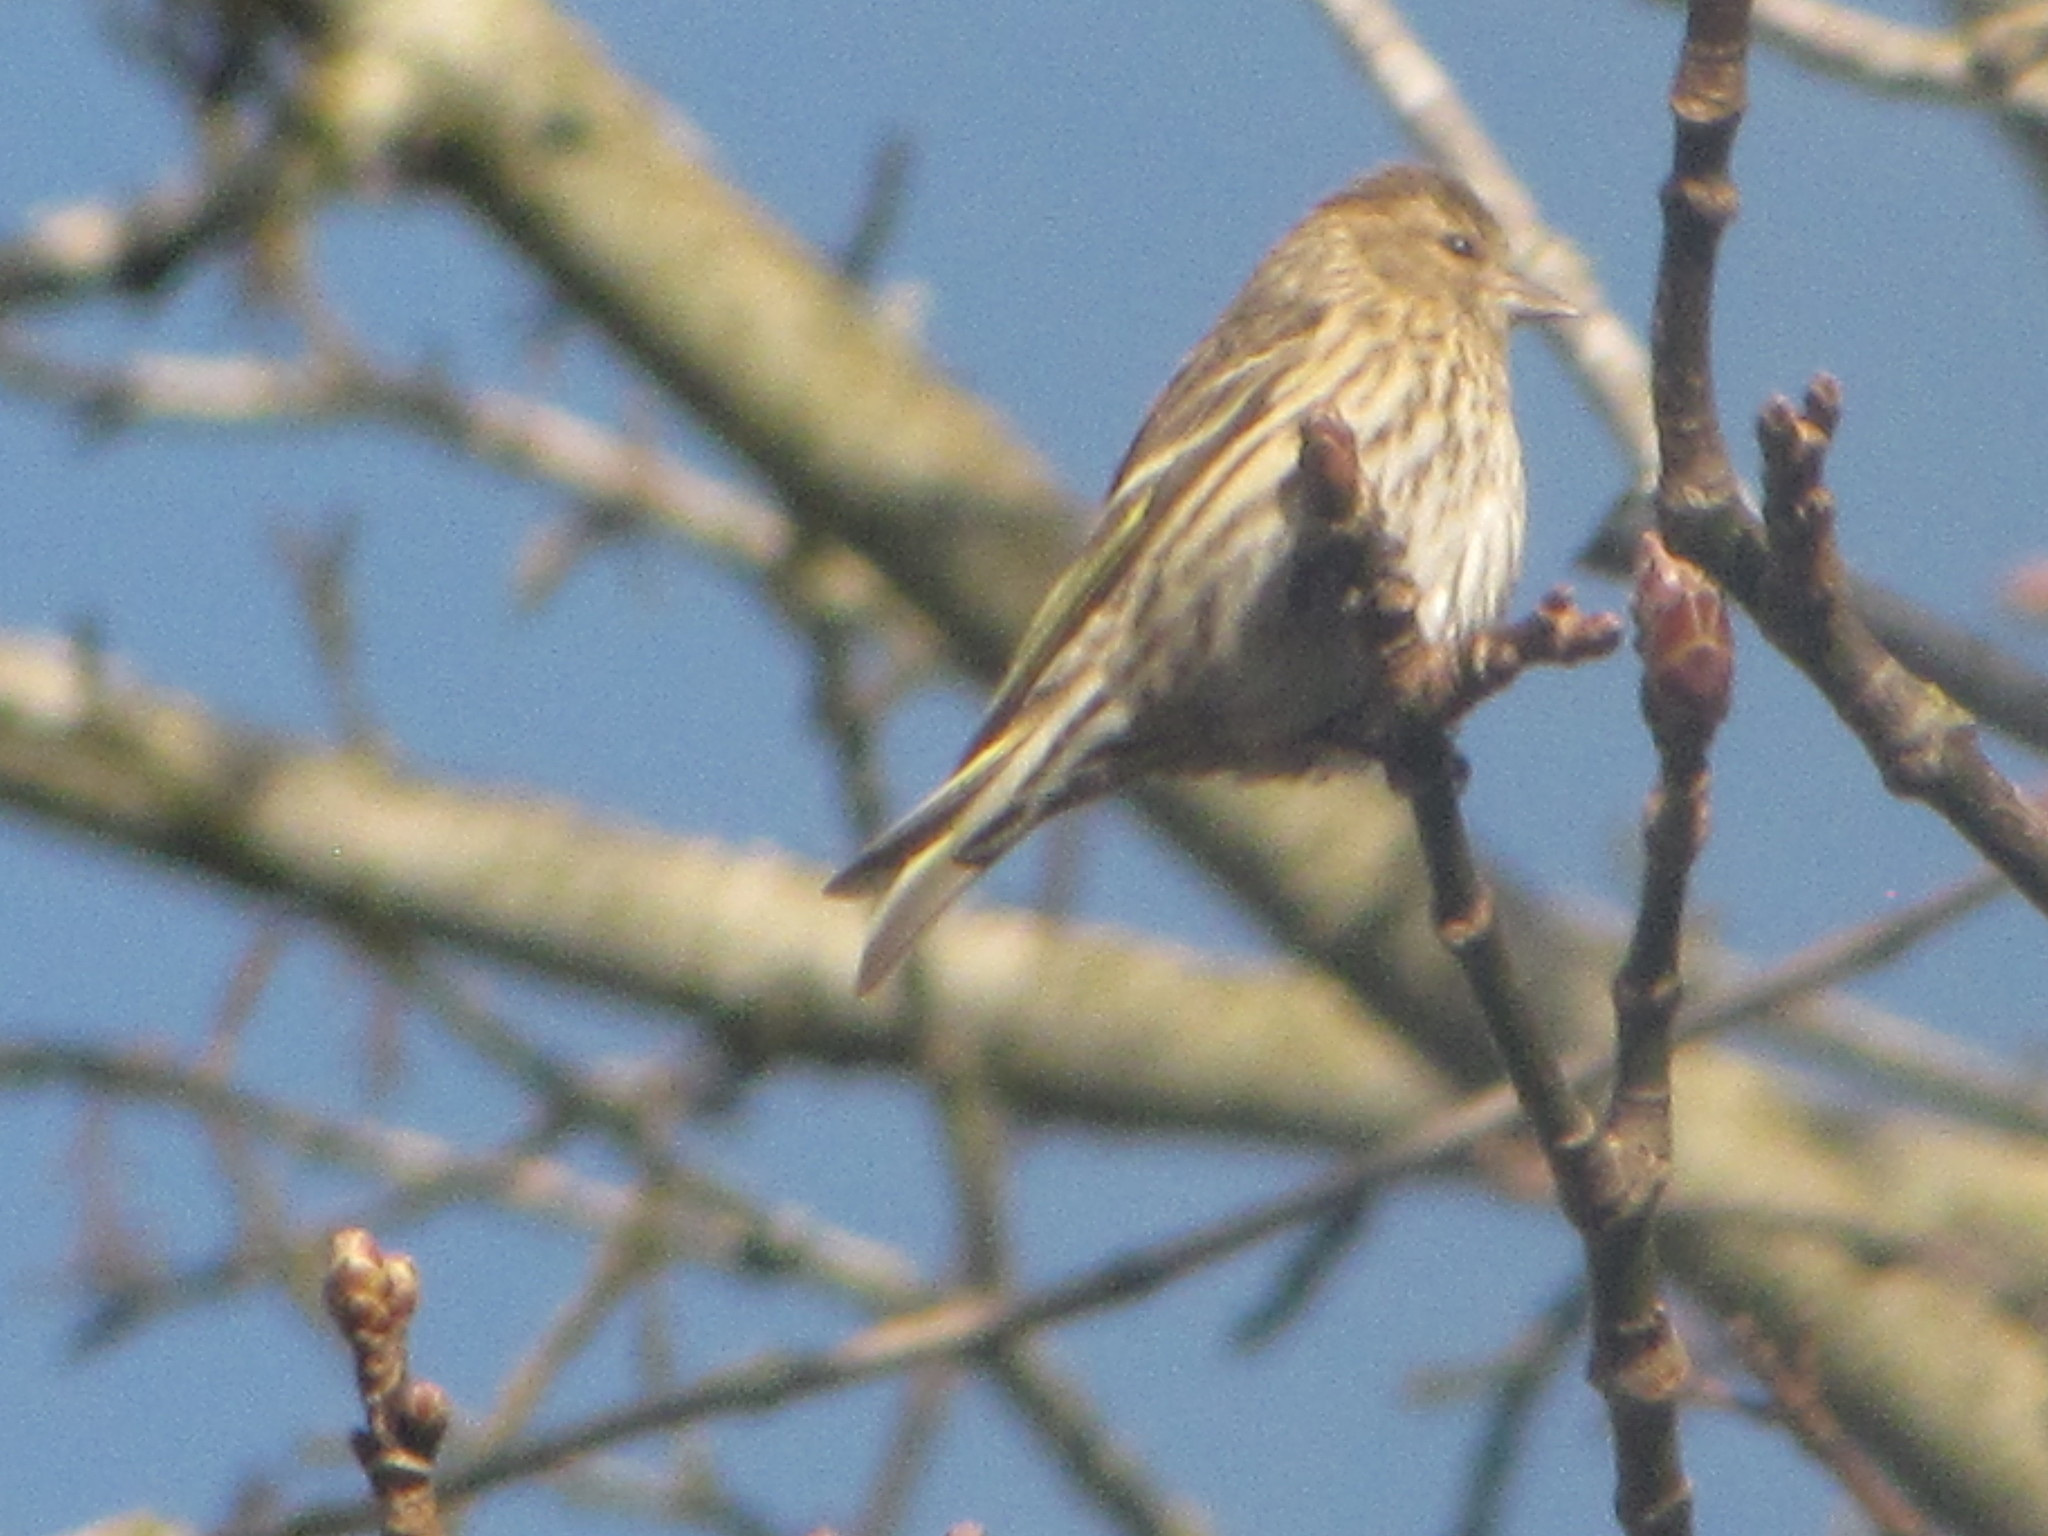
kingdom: Animalia
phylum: Chordata
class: Aves
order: Passeriformes
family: Fringillidae
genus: Spinus
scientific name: Spinus pinus
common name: Pine siskin
